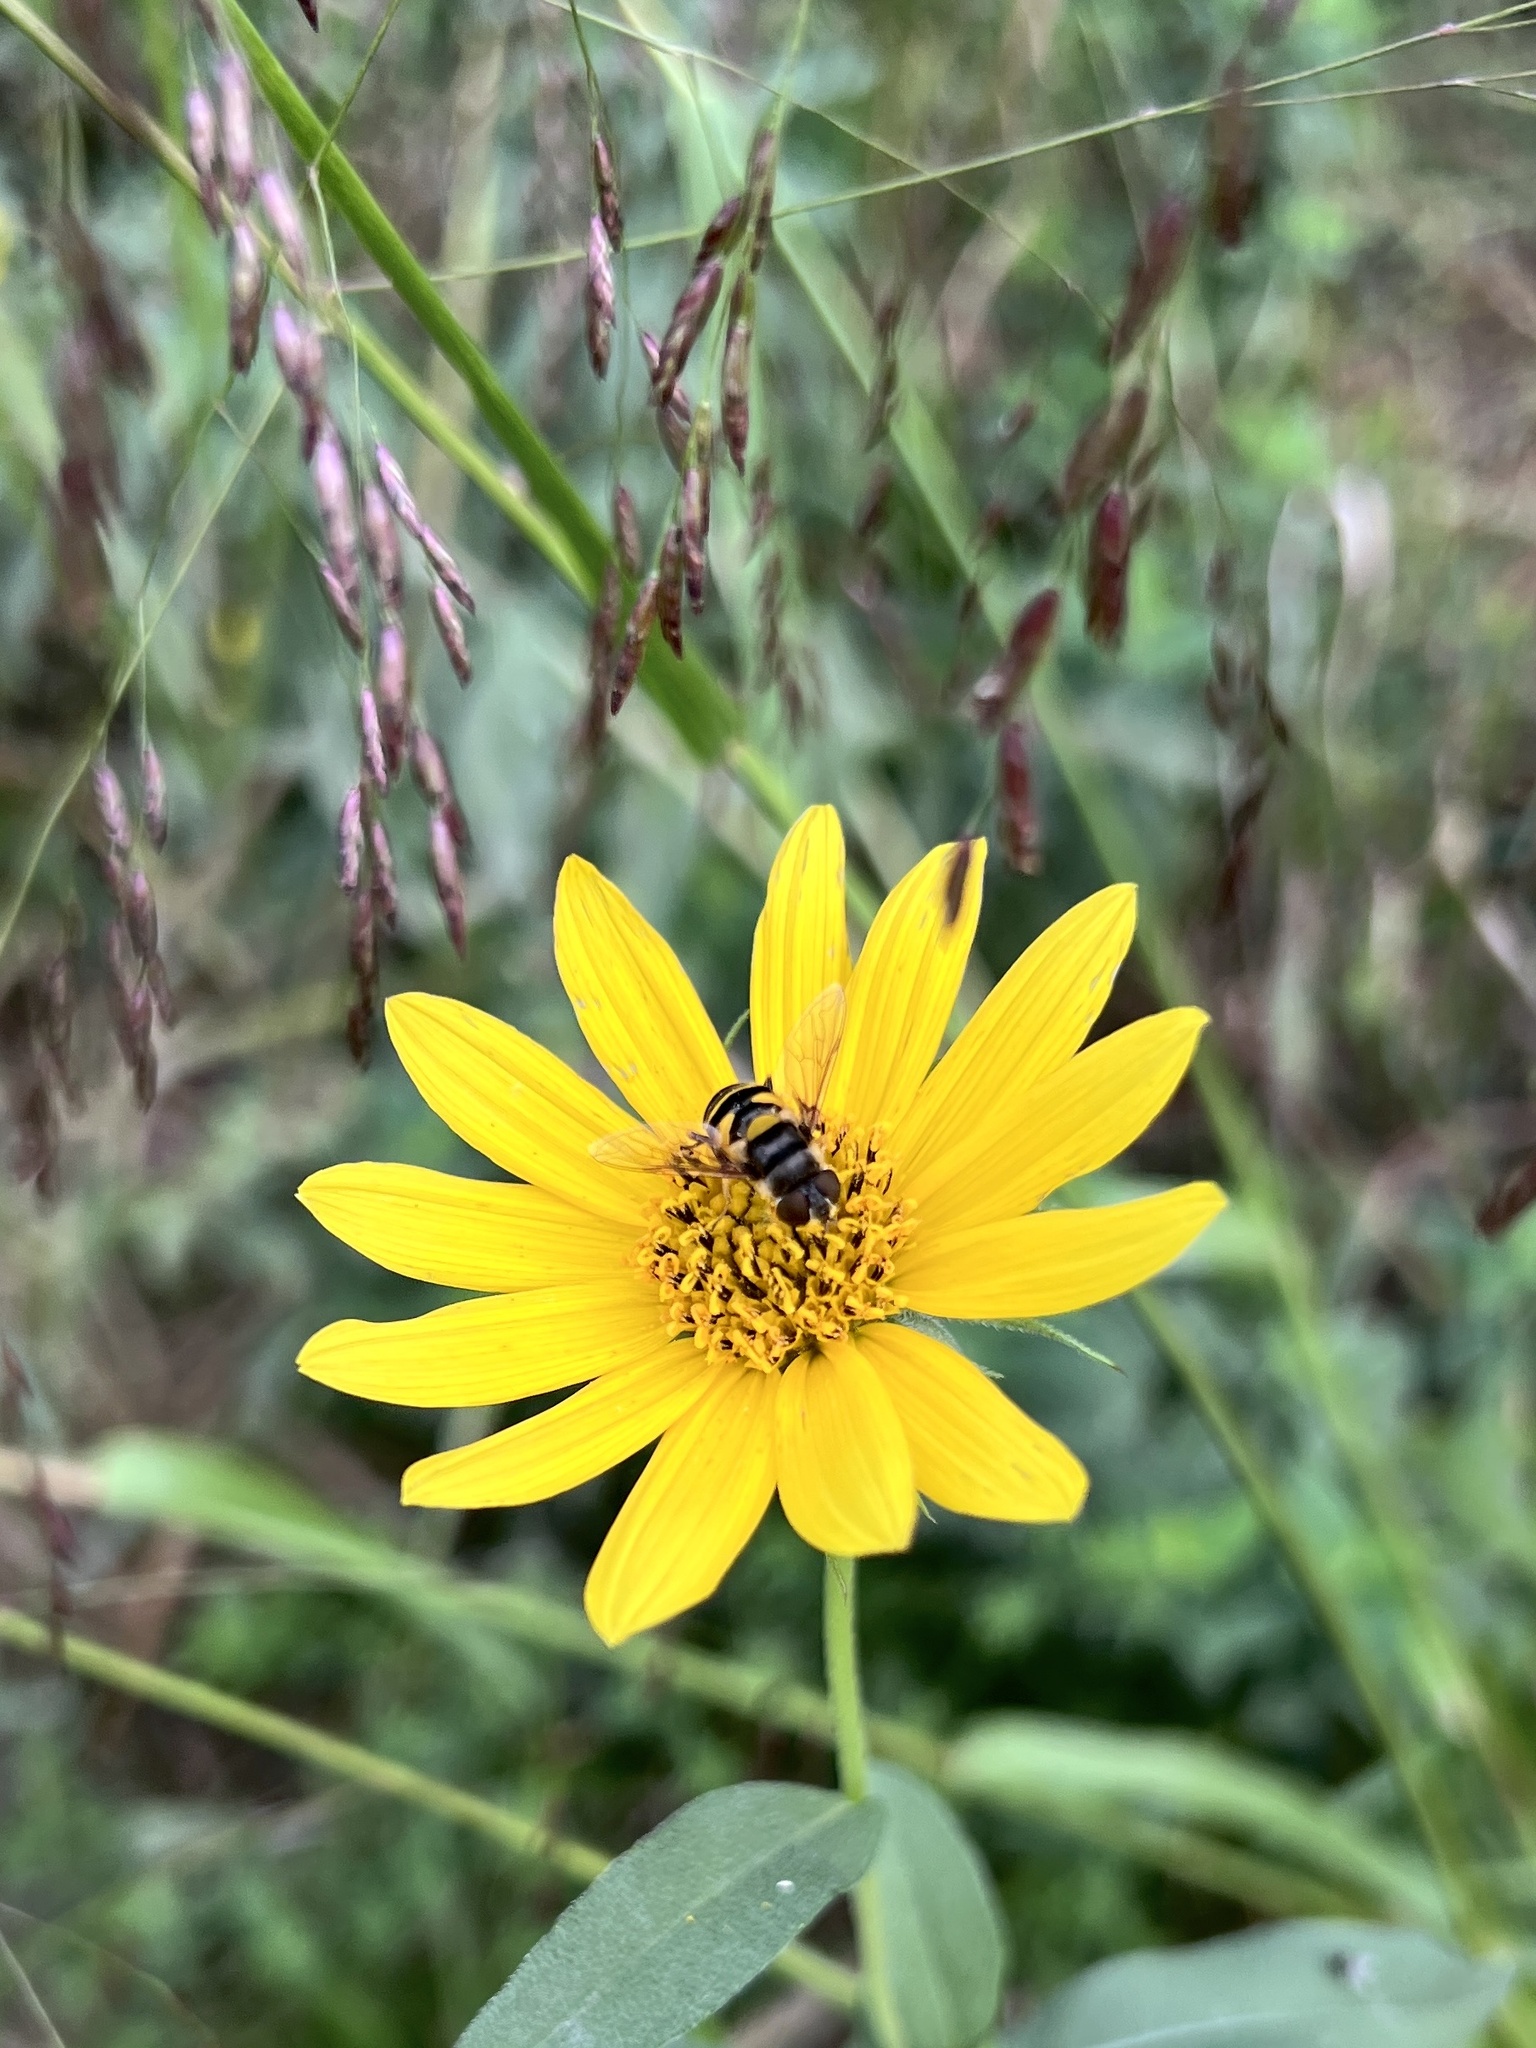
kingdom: Animalia
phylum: Arthropoda
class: Insecta
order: Diptera
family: Syrphidae
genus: Eristalis
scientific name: Eristalis transversa
